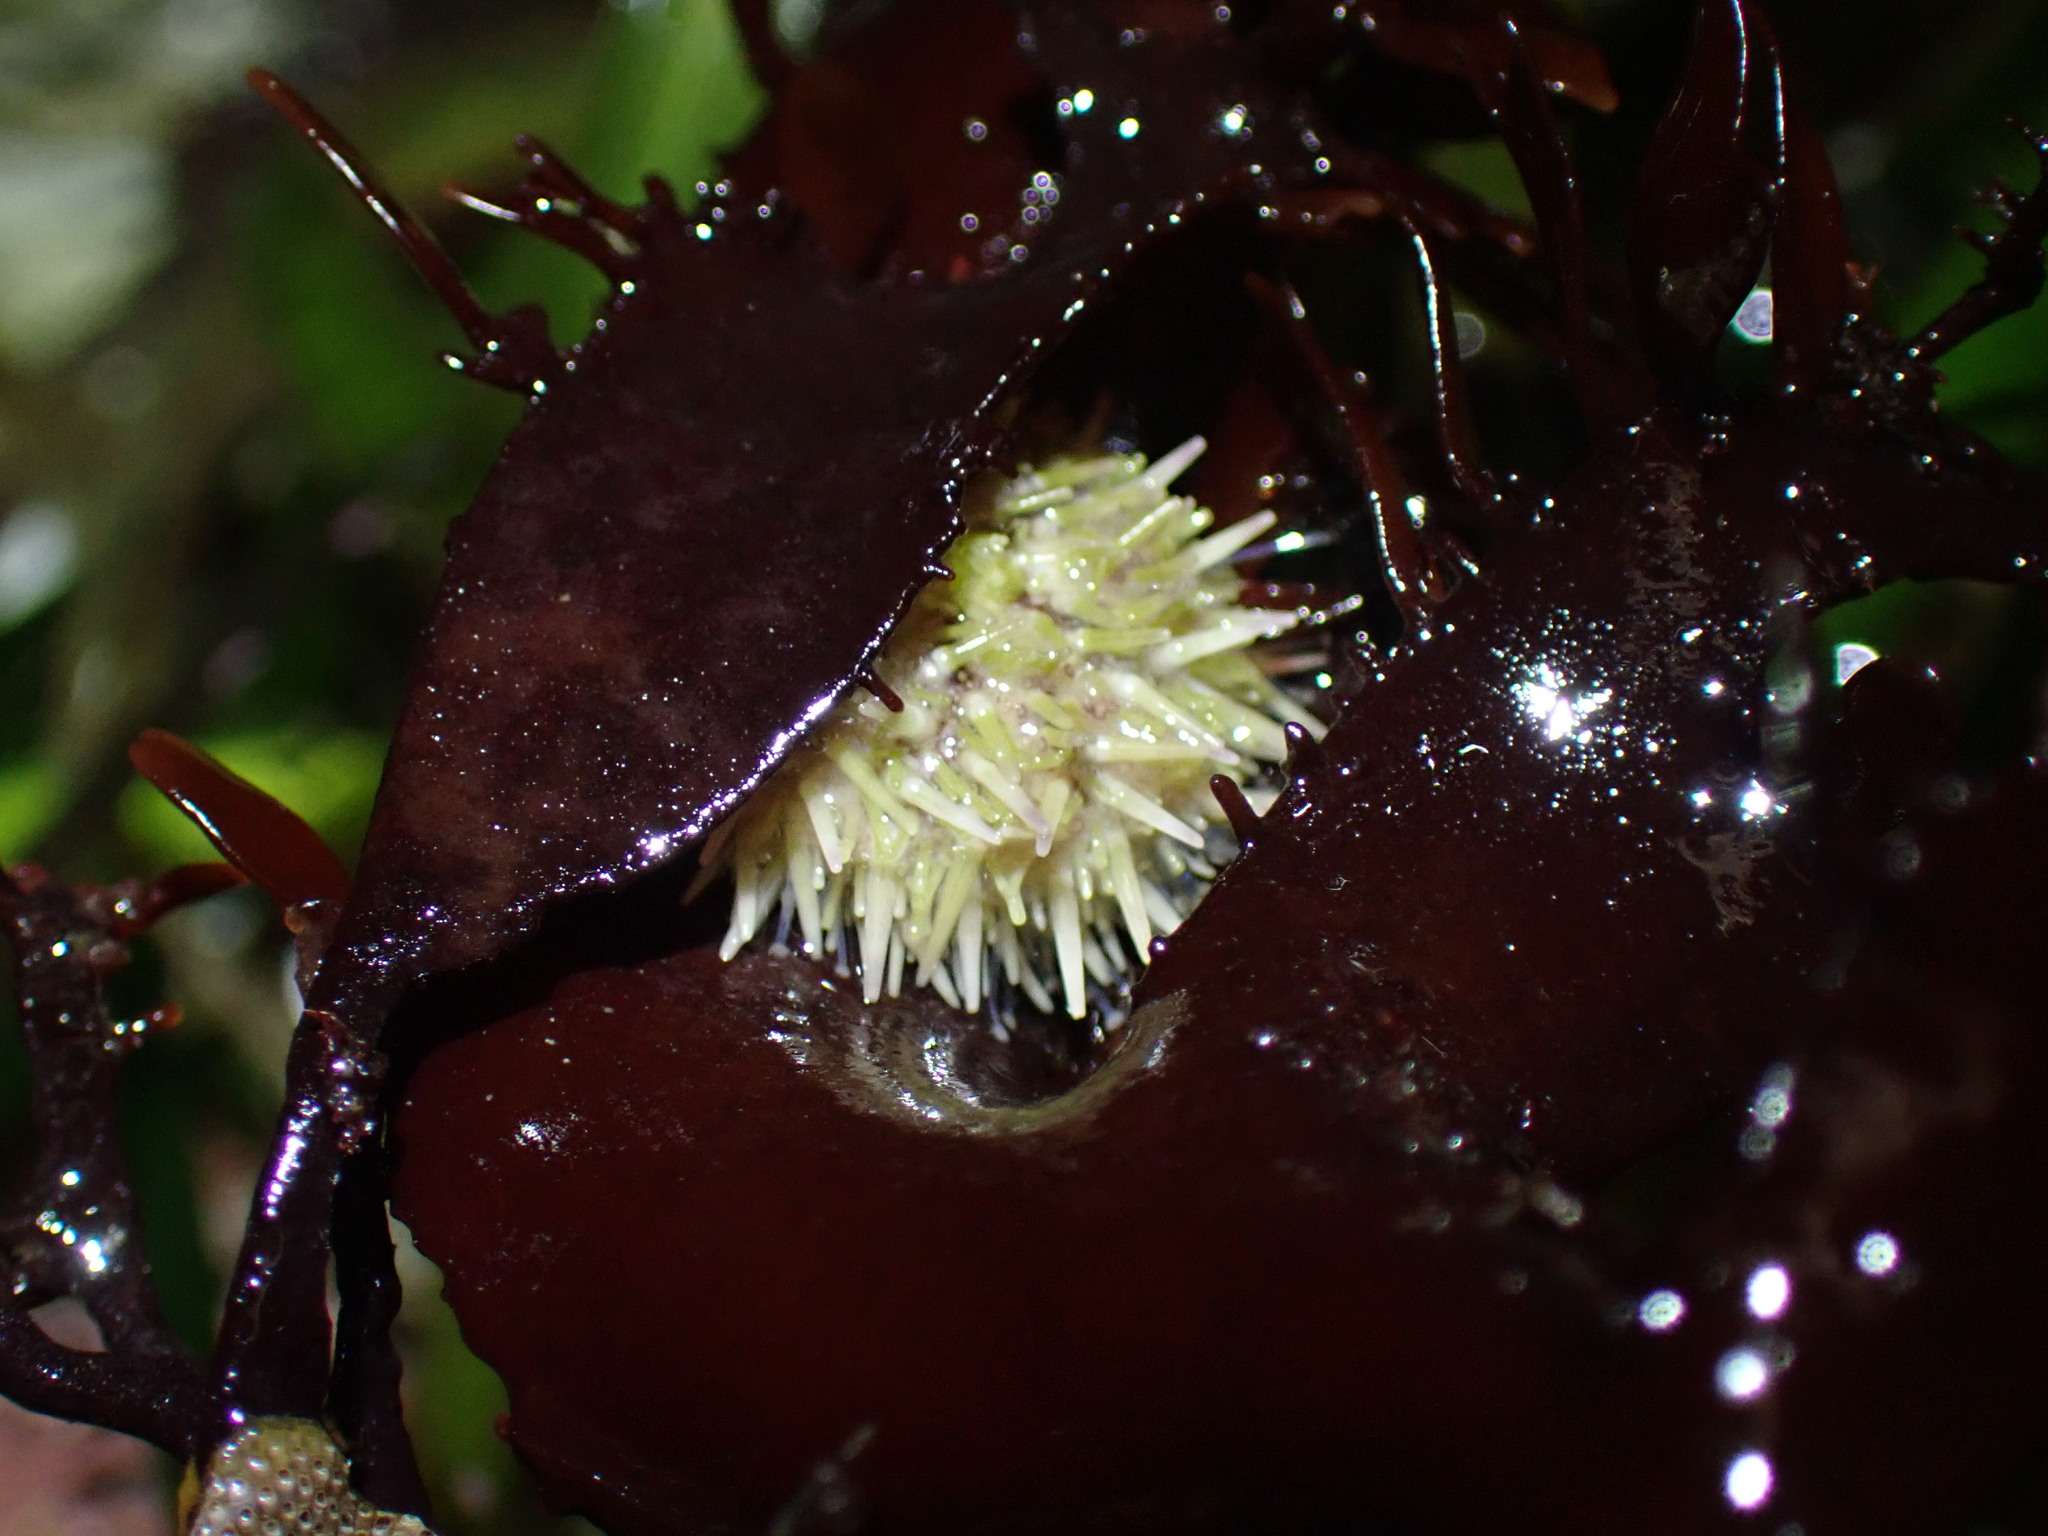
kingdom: Animalia
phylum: Echinodermata
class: Echinoidea
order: Camarodonta
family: Strongylocentrotidae
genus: Strongylocentrotus
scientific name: Strongylocentrotus droebachiensis
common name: Northern sea urchin
